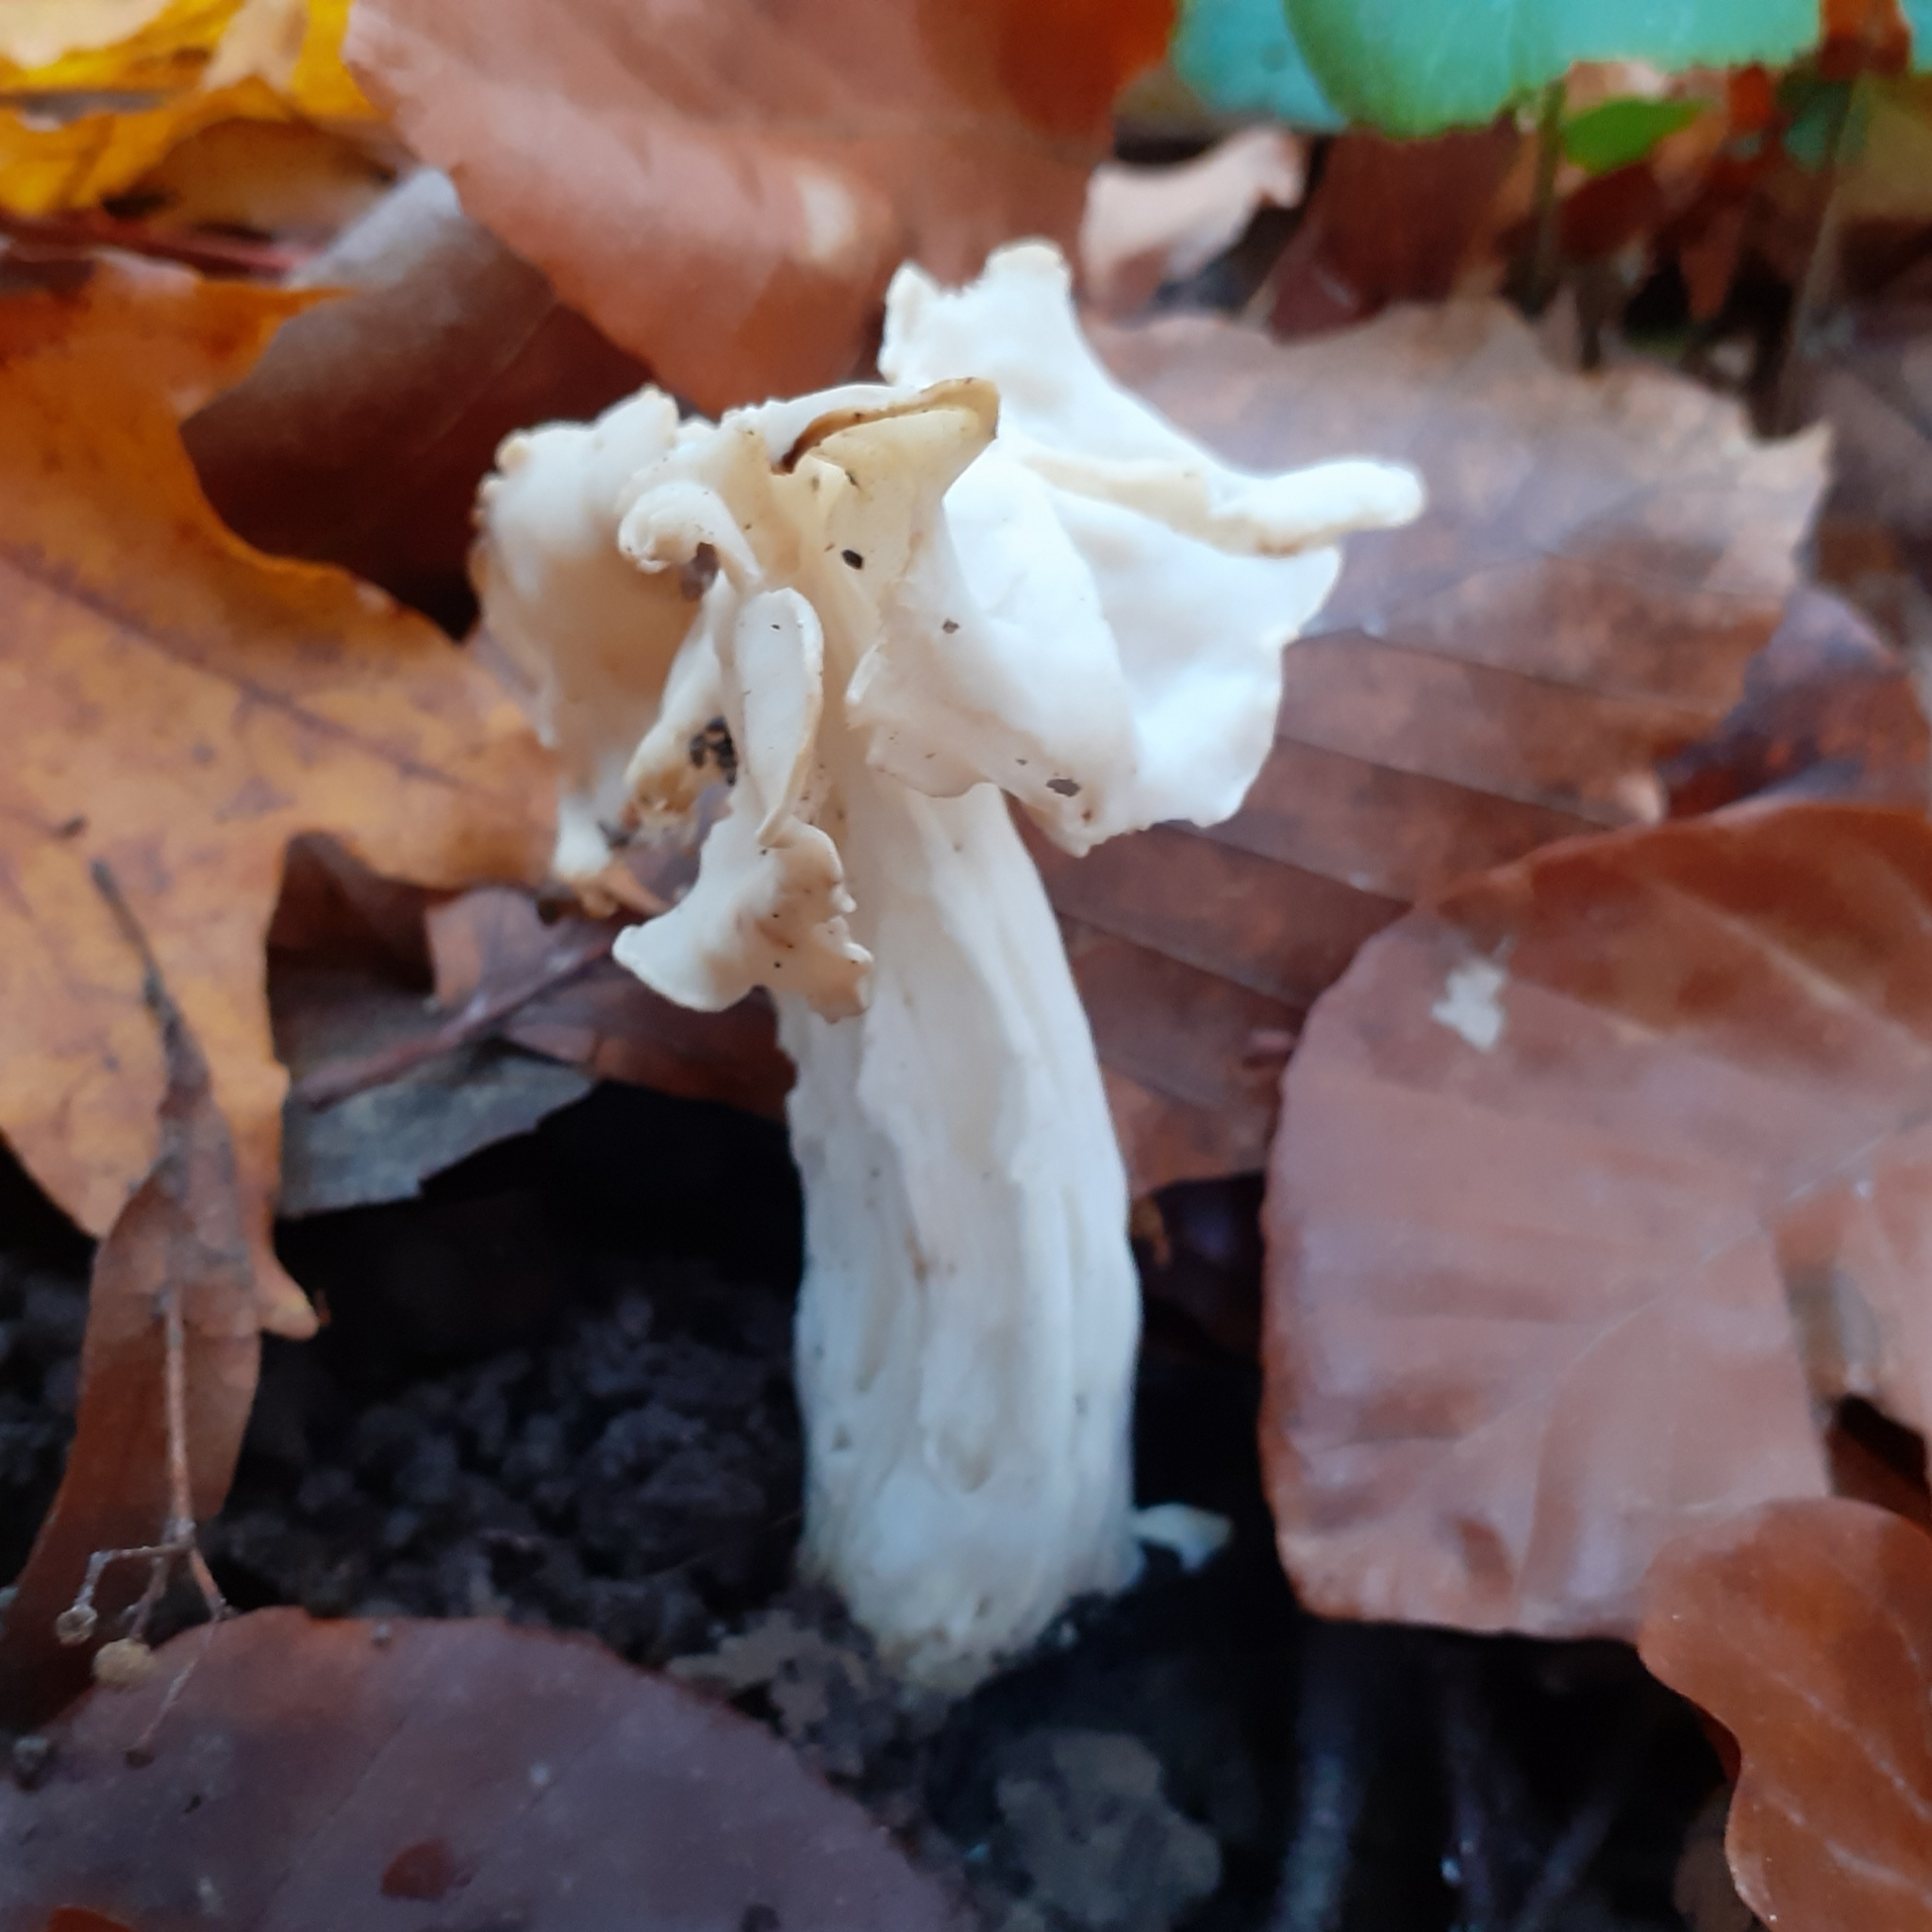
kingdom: Fungi
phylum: Ascomycota
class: Pezizomycetes
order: Pezizales
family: Helvellaceae
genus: Helvella
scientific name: Helvella crispa
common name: White saddle
